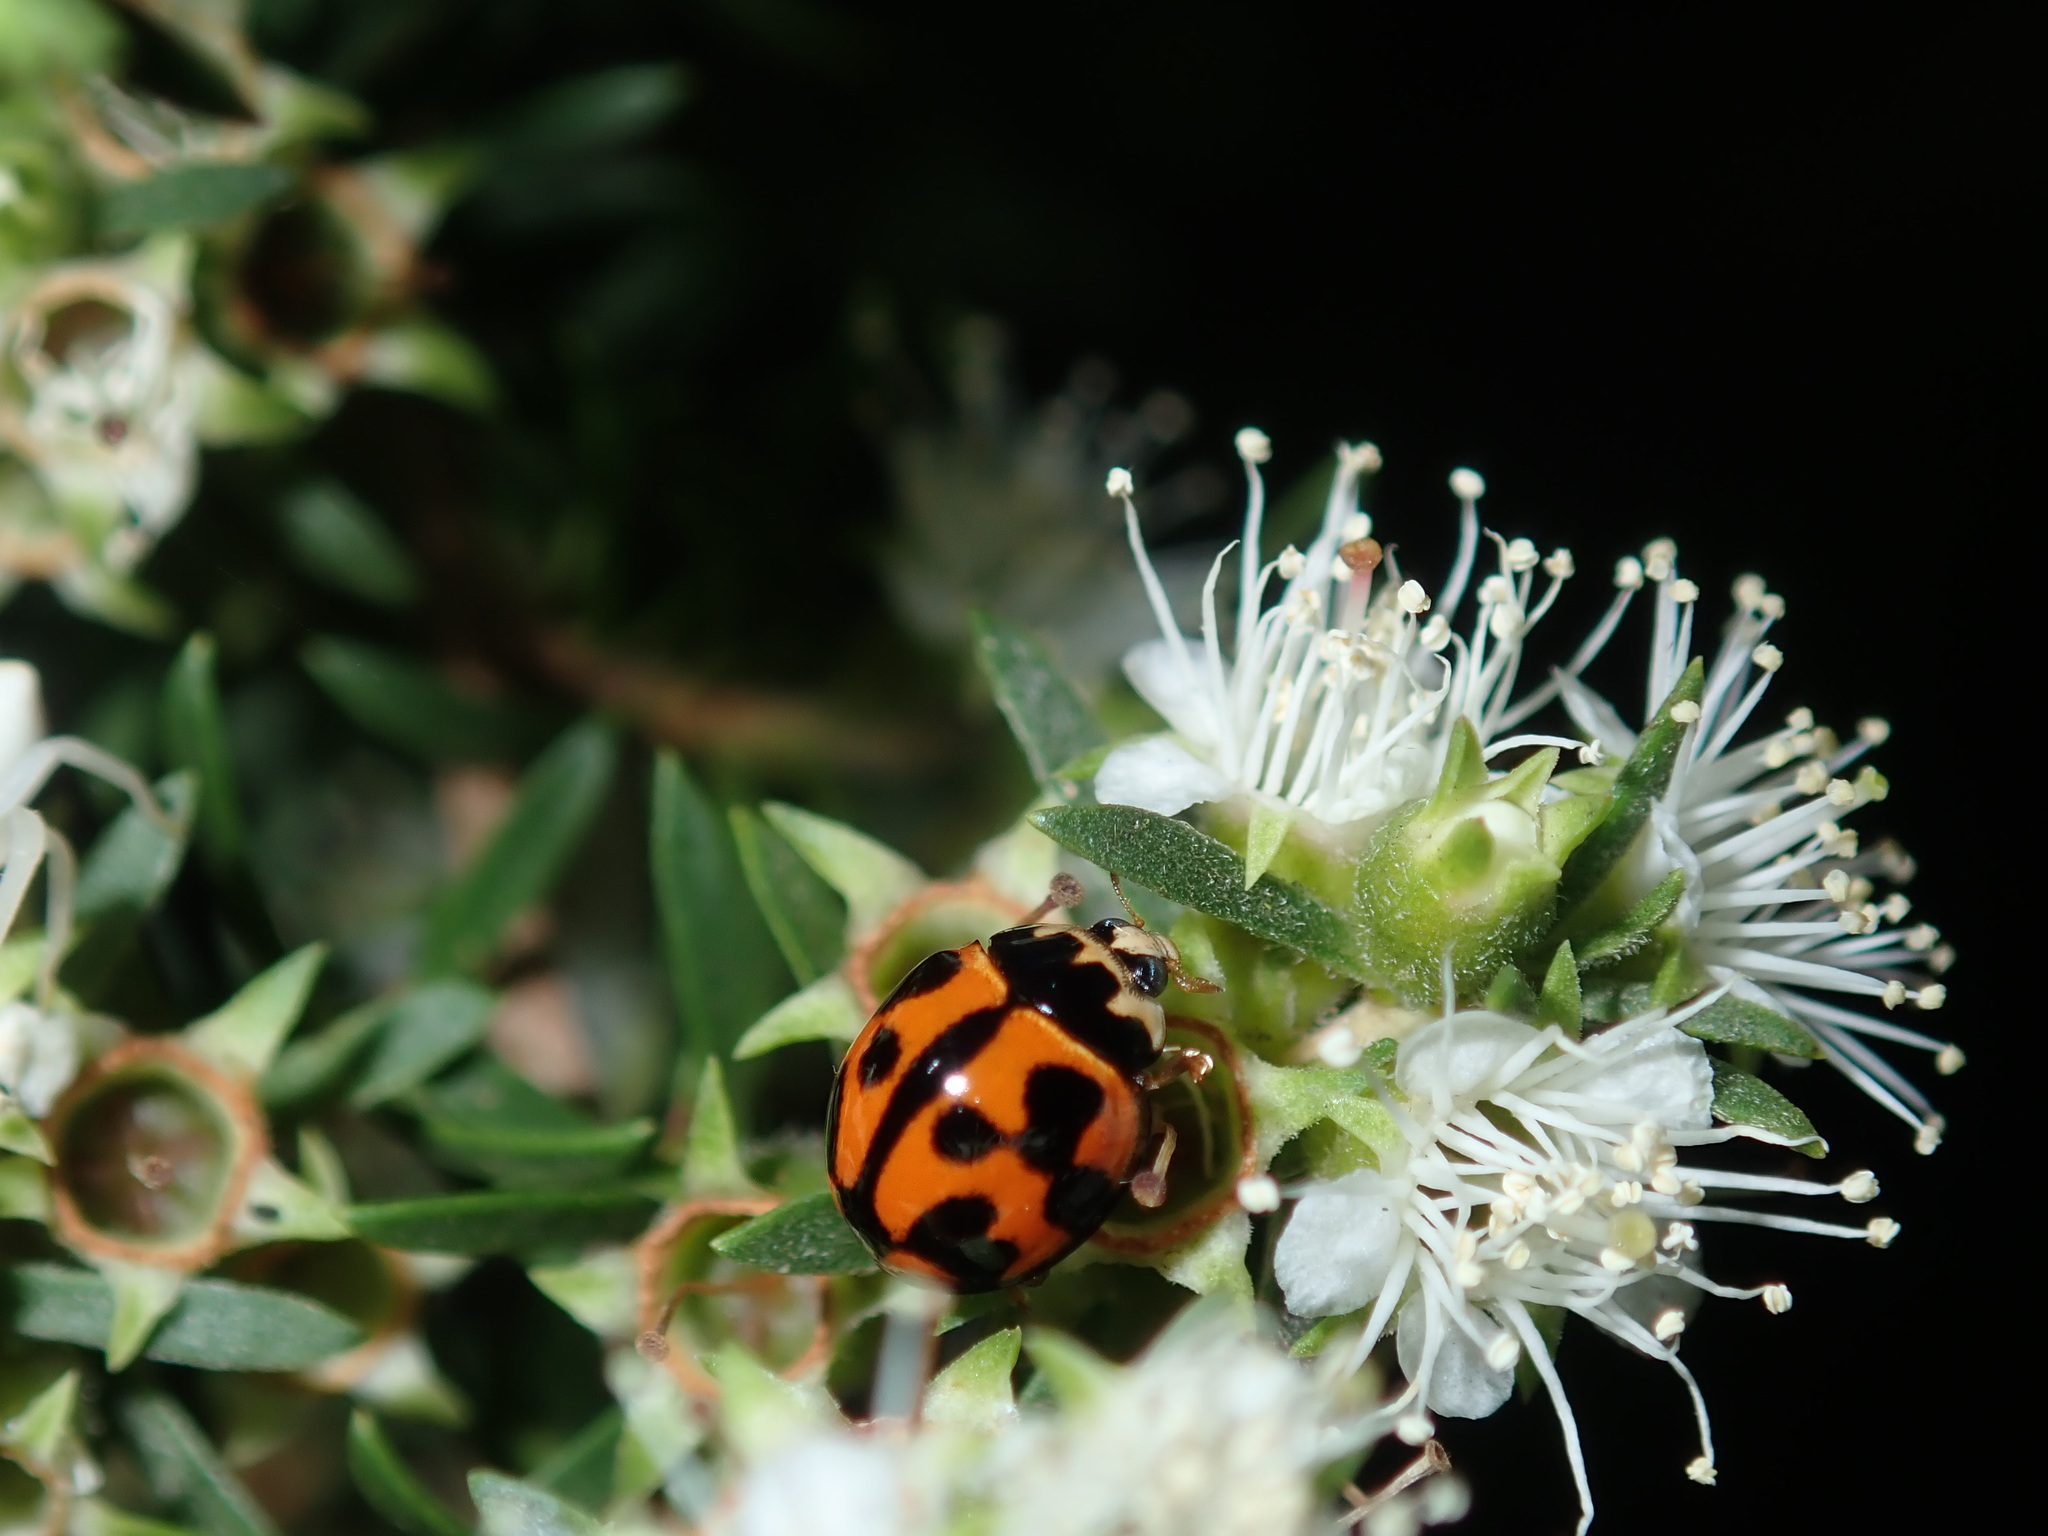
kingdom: Animalia
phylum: Arthropoda
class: Insecta
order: Coleoptera
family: Coccinellidae
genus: Coelophora
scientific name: Coelophora inaequalis
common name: Common australian lady beetle
